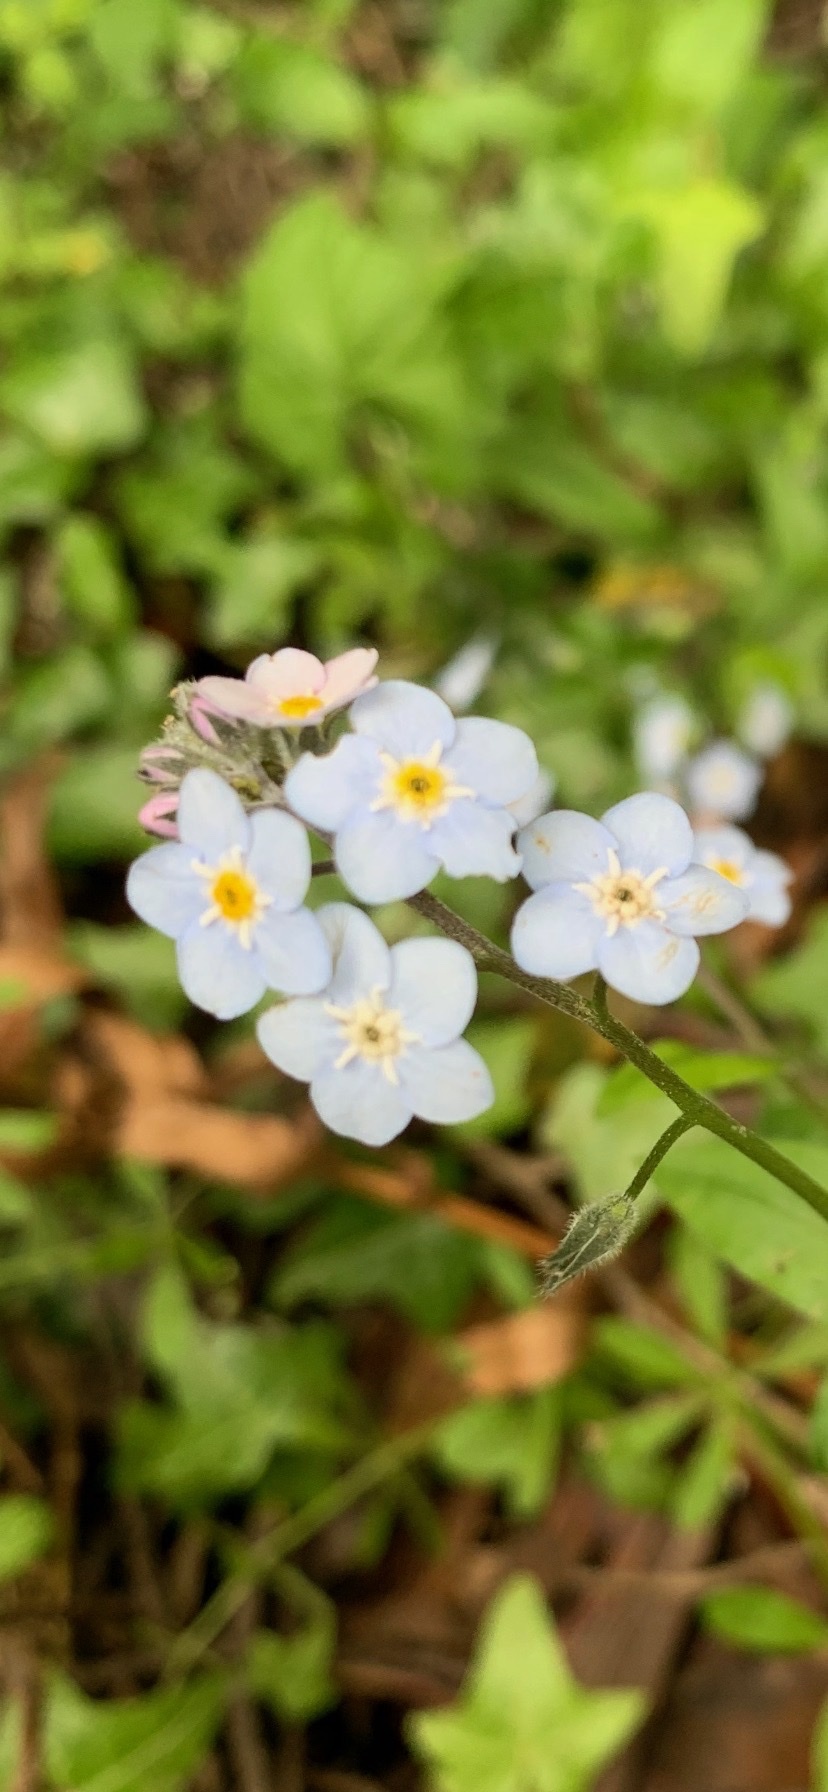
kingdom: Plantae
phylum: Tracheophyta
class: Magnoliopsida
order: Boraginales
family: Boraginaceae
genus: Myosotis
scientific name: Myosotis latifolia
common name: Broadleaf forget-me-not
